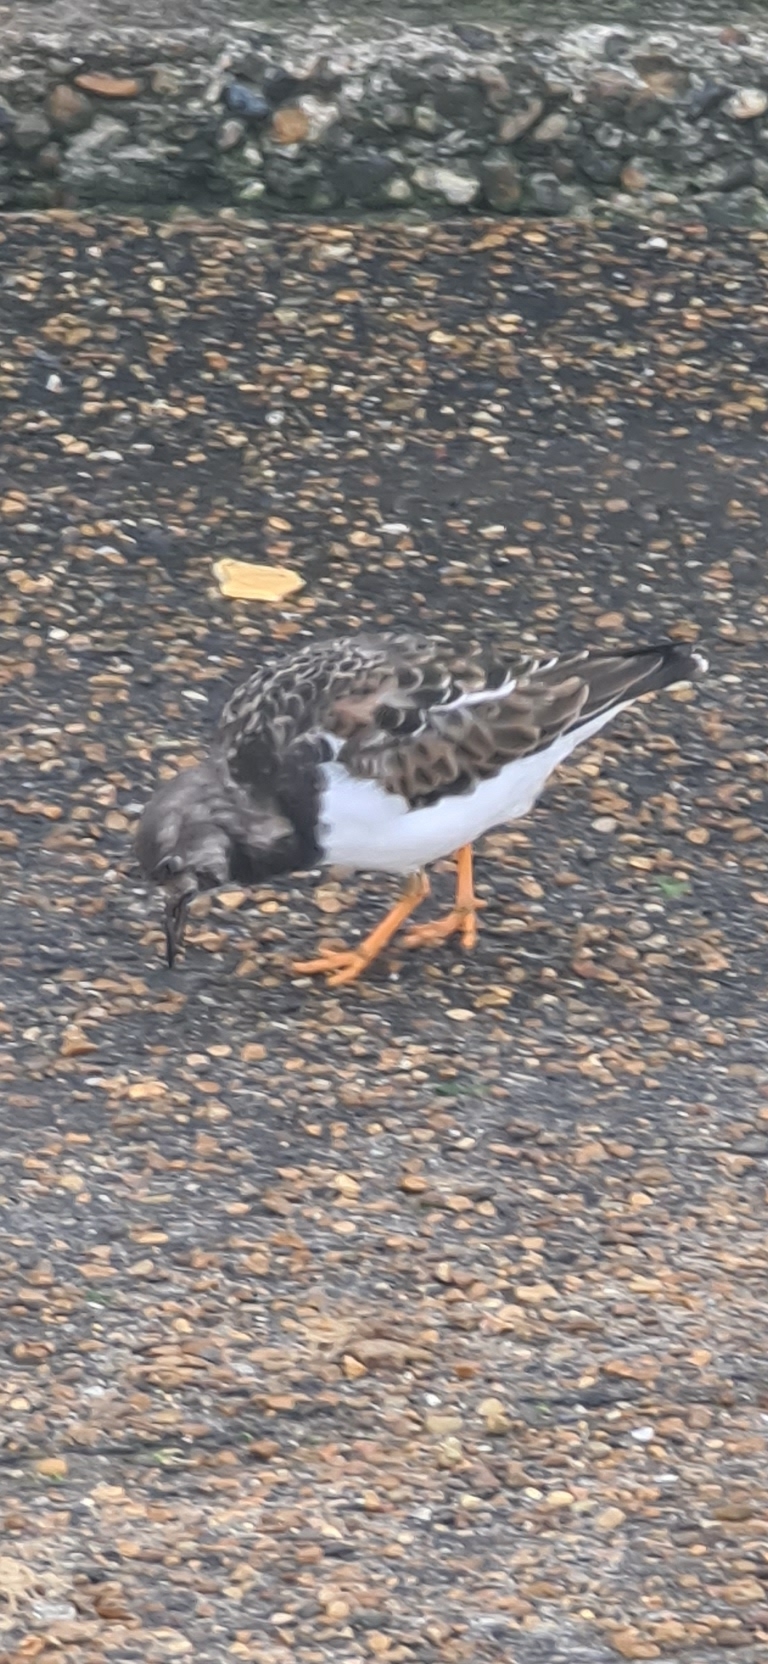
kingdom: Animalia
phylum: Chordata
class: Aves
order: Charadriiformes
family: Scolopacidae
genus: Arenaria
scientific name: Arenaria interpres
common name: Ruddy turnstone
